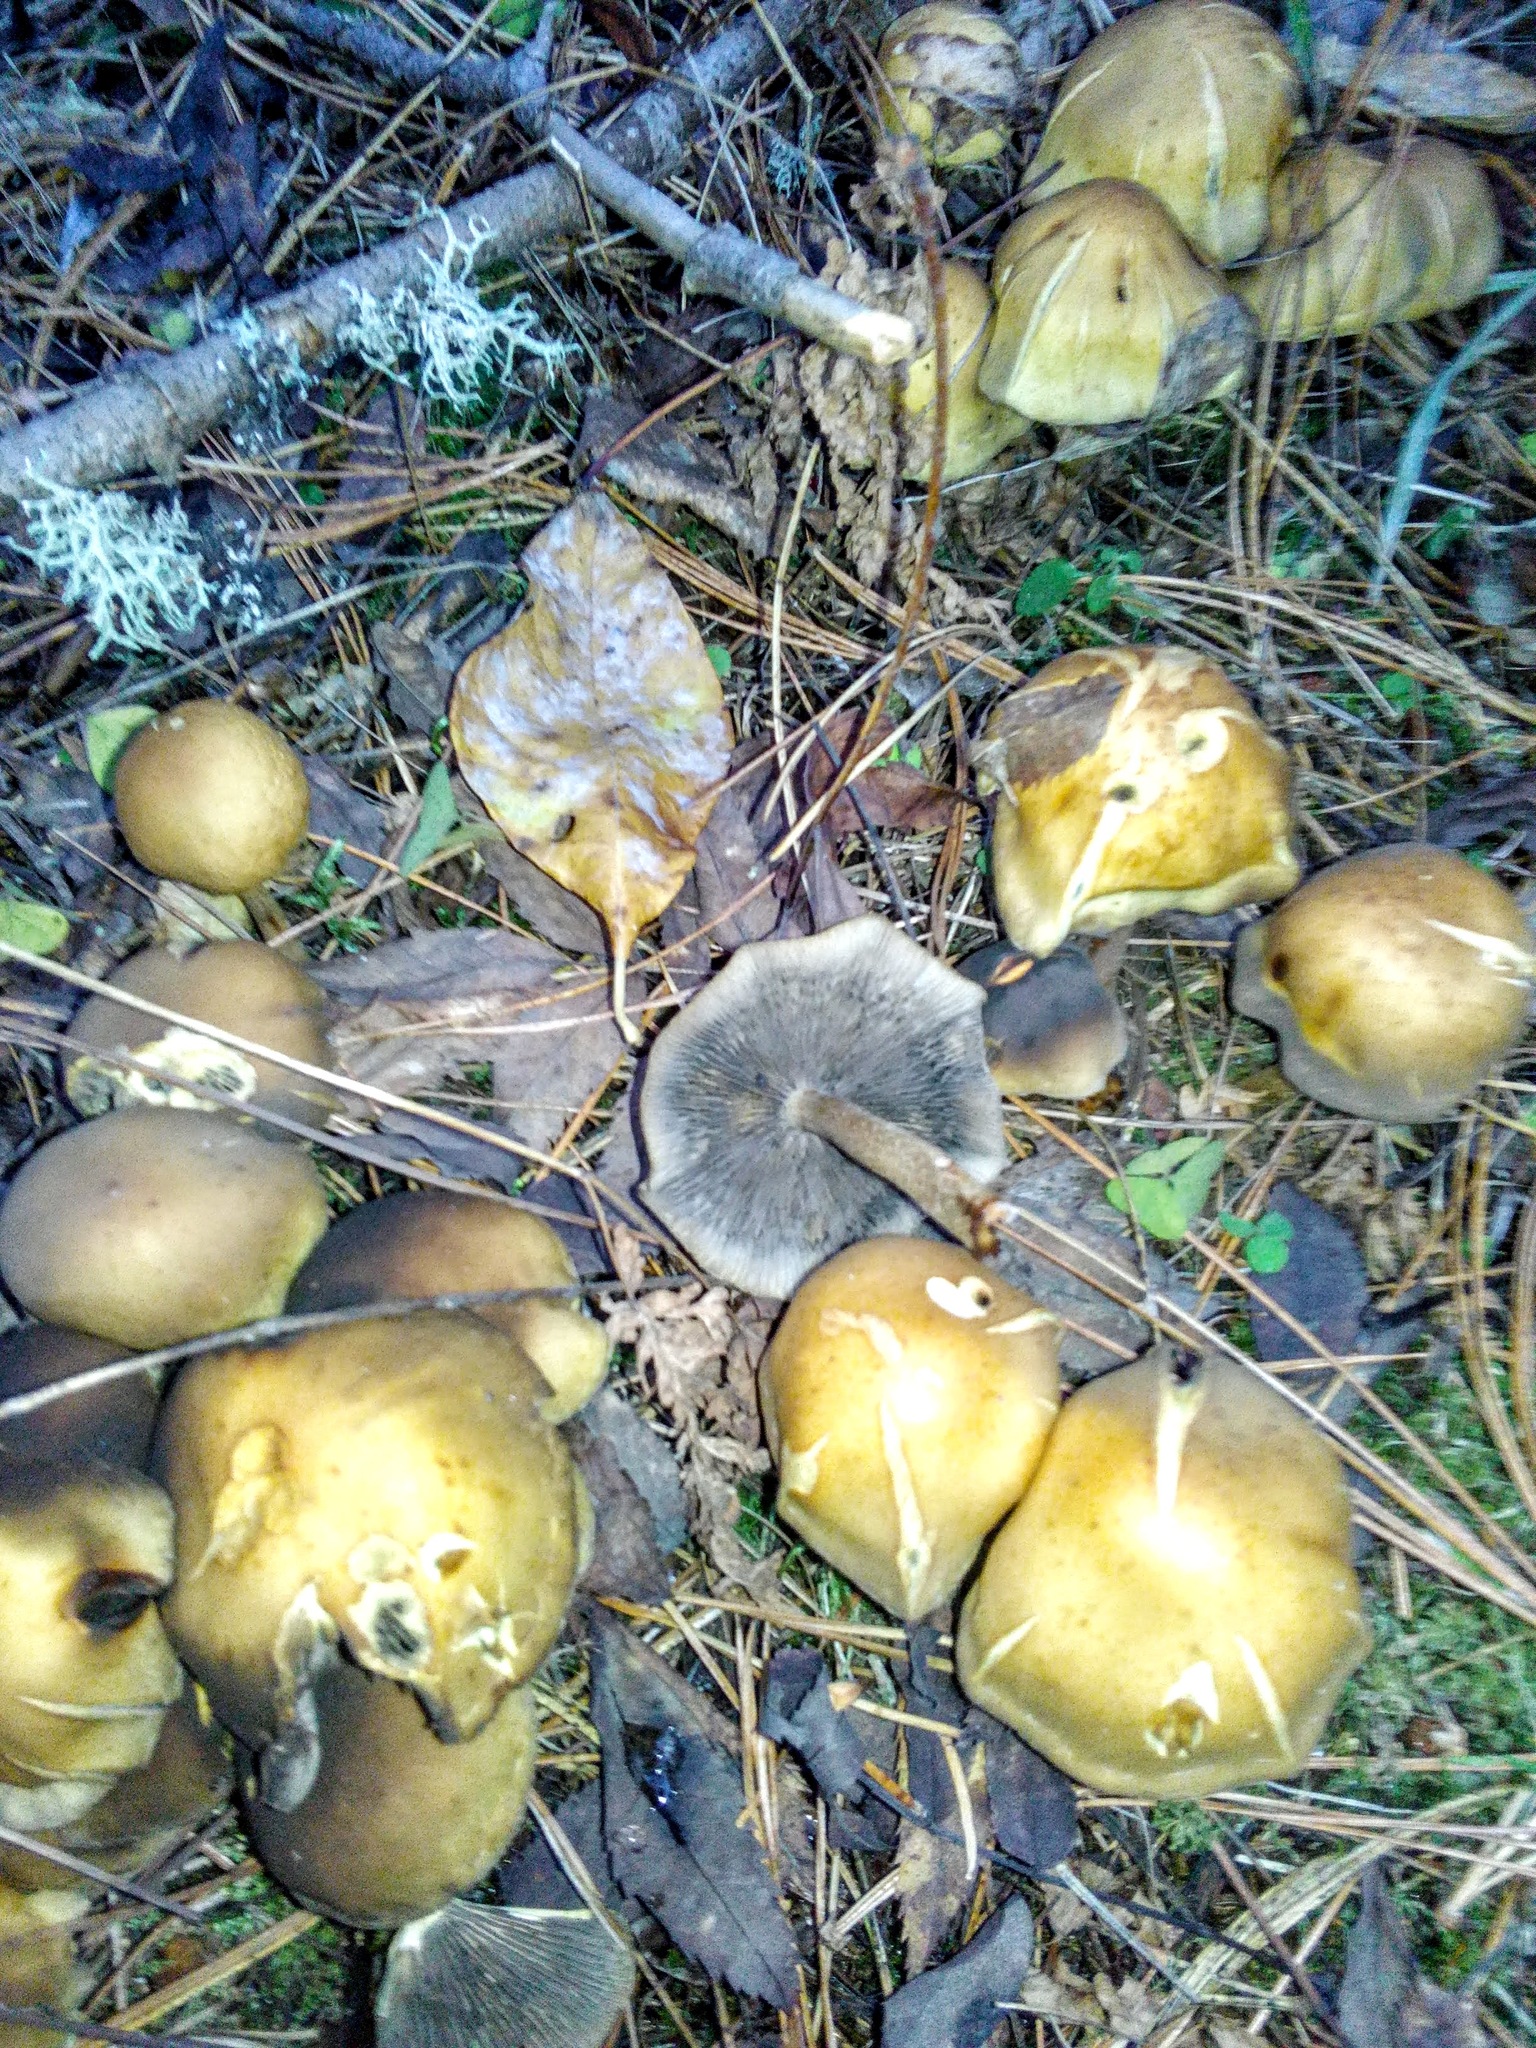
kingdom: Fungi
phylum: Basidiomycota
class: Agaricomycetes
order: Agaricales
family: Strophariaceae
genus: Hypholoma
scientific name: Hypholoma capnoides
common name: Conifer tuft
